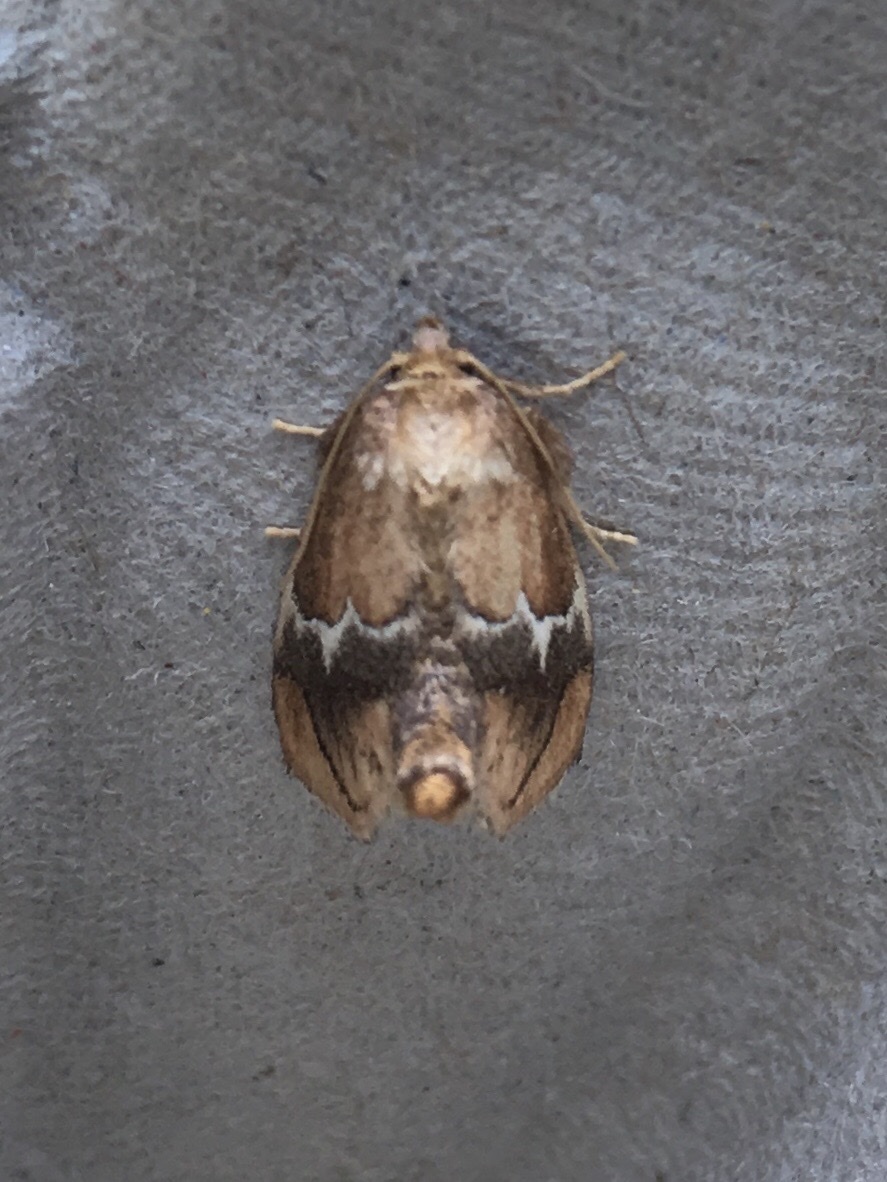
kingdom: Animalia
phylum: Arthropoda
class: Insecta
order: Lepidoptera
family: Limacodidae
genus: Lithacodes
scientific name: Lithacodes fasciola
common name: Yellow-shouldered slug moth
